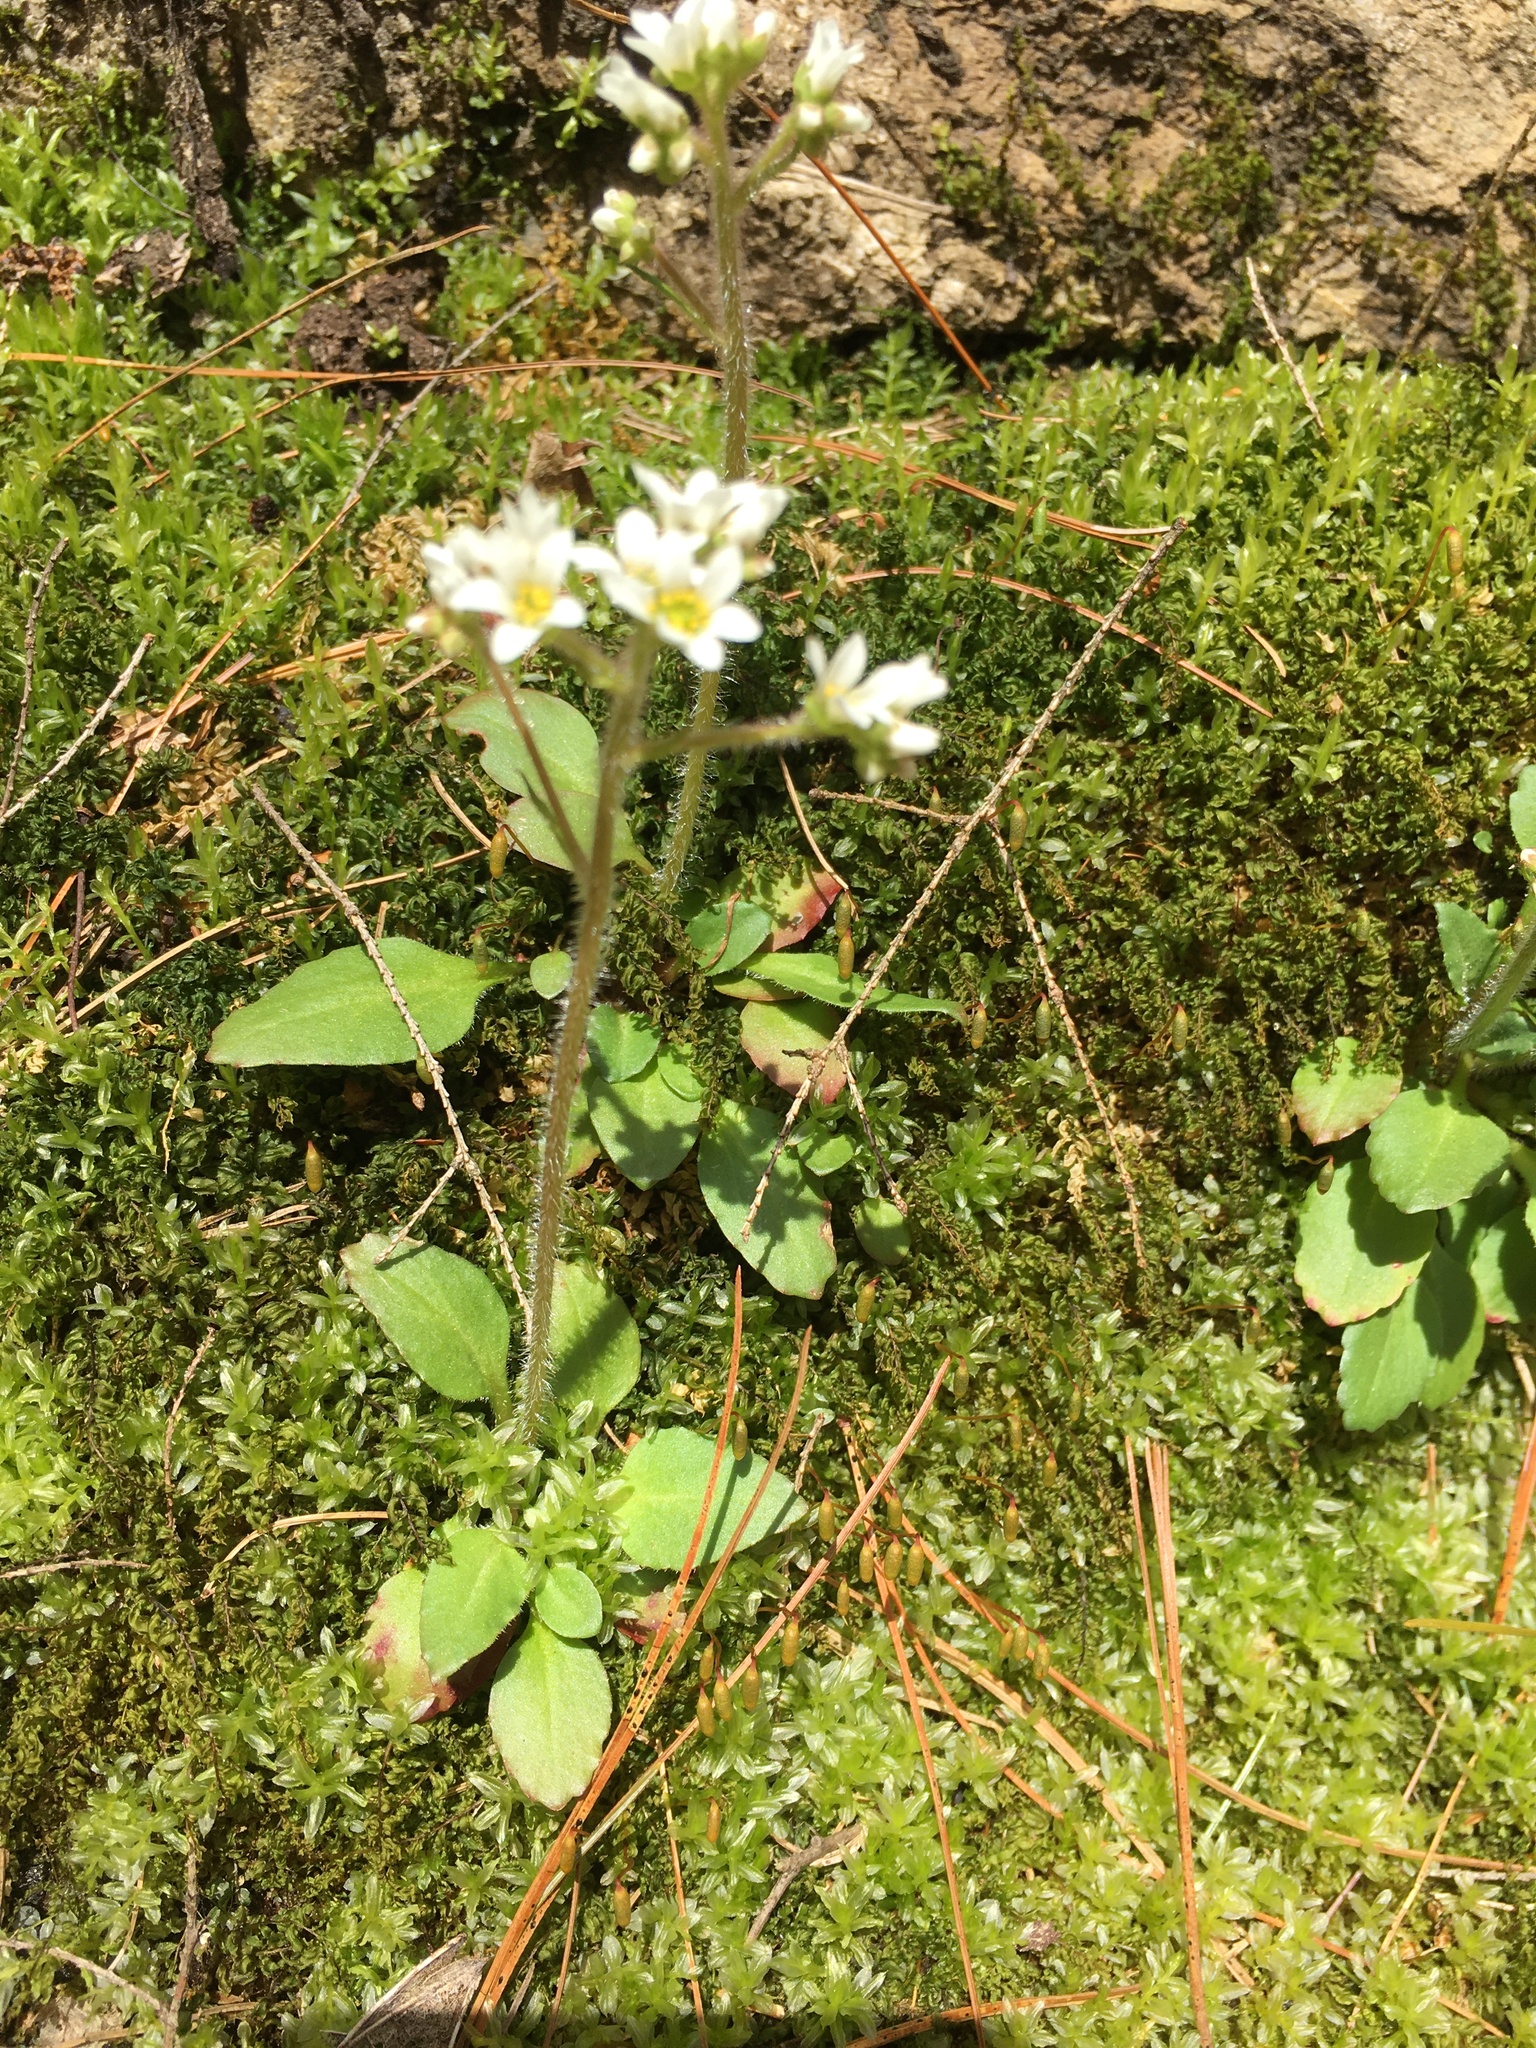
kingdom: Plantae
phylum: Tracheophyta
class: Magnoliopsida
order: Saxifragales
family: Saxifragaceae
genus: Micranthes
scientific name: Micranthes virginiensis
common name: Early saxifrage
